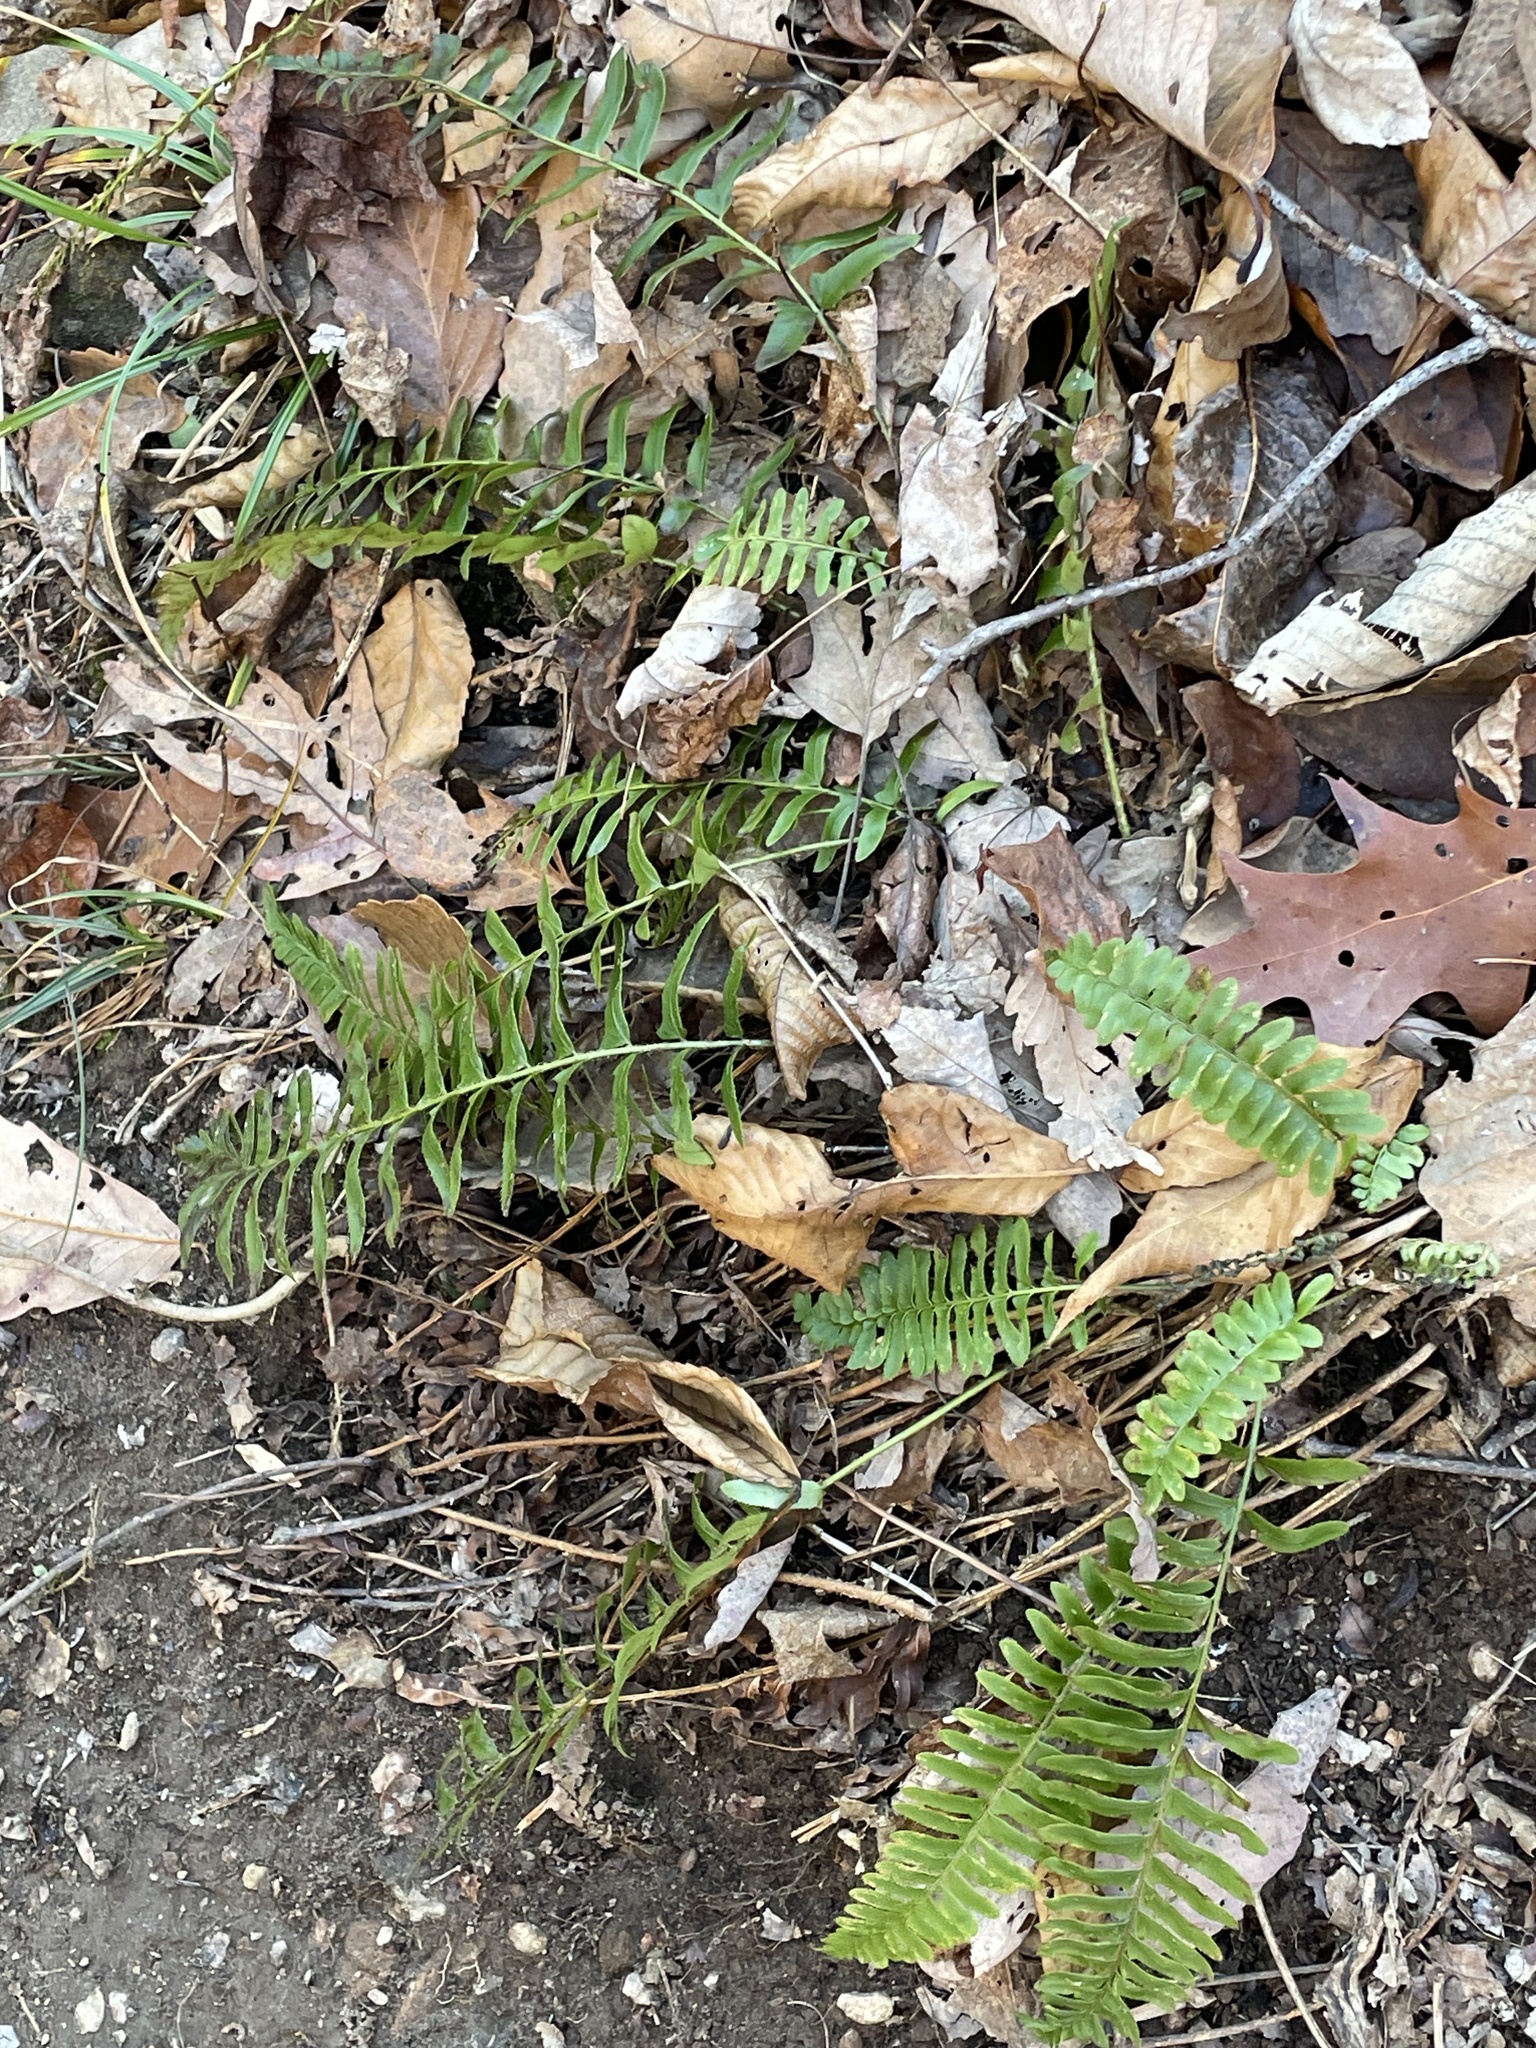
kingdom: Plantae
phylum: Tracheophyta
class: Polypodiopsida
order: Polypodiales
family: Dryopteridaceae
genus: Polystichum
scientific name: Polystichum acrostichoides
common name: Christmas fern
